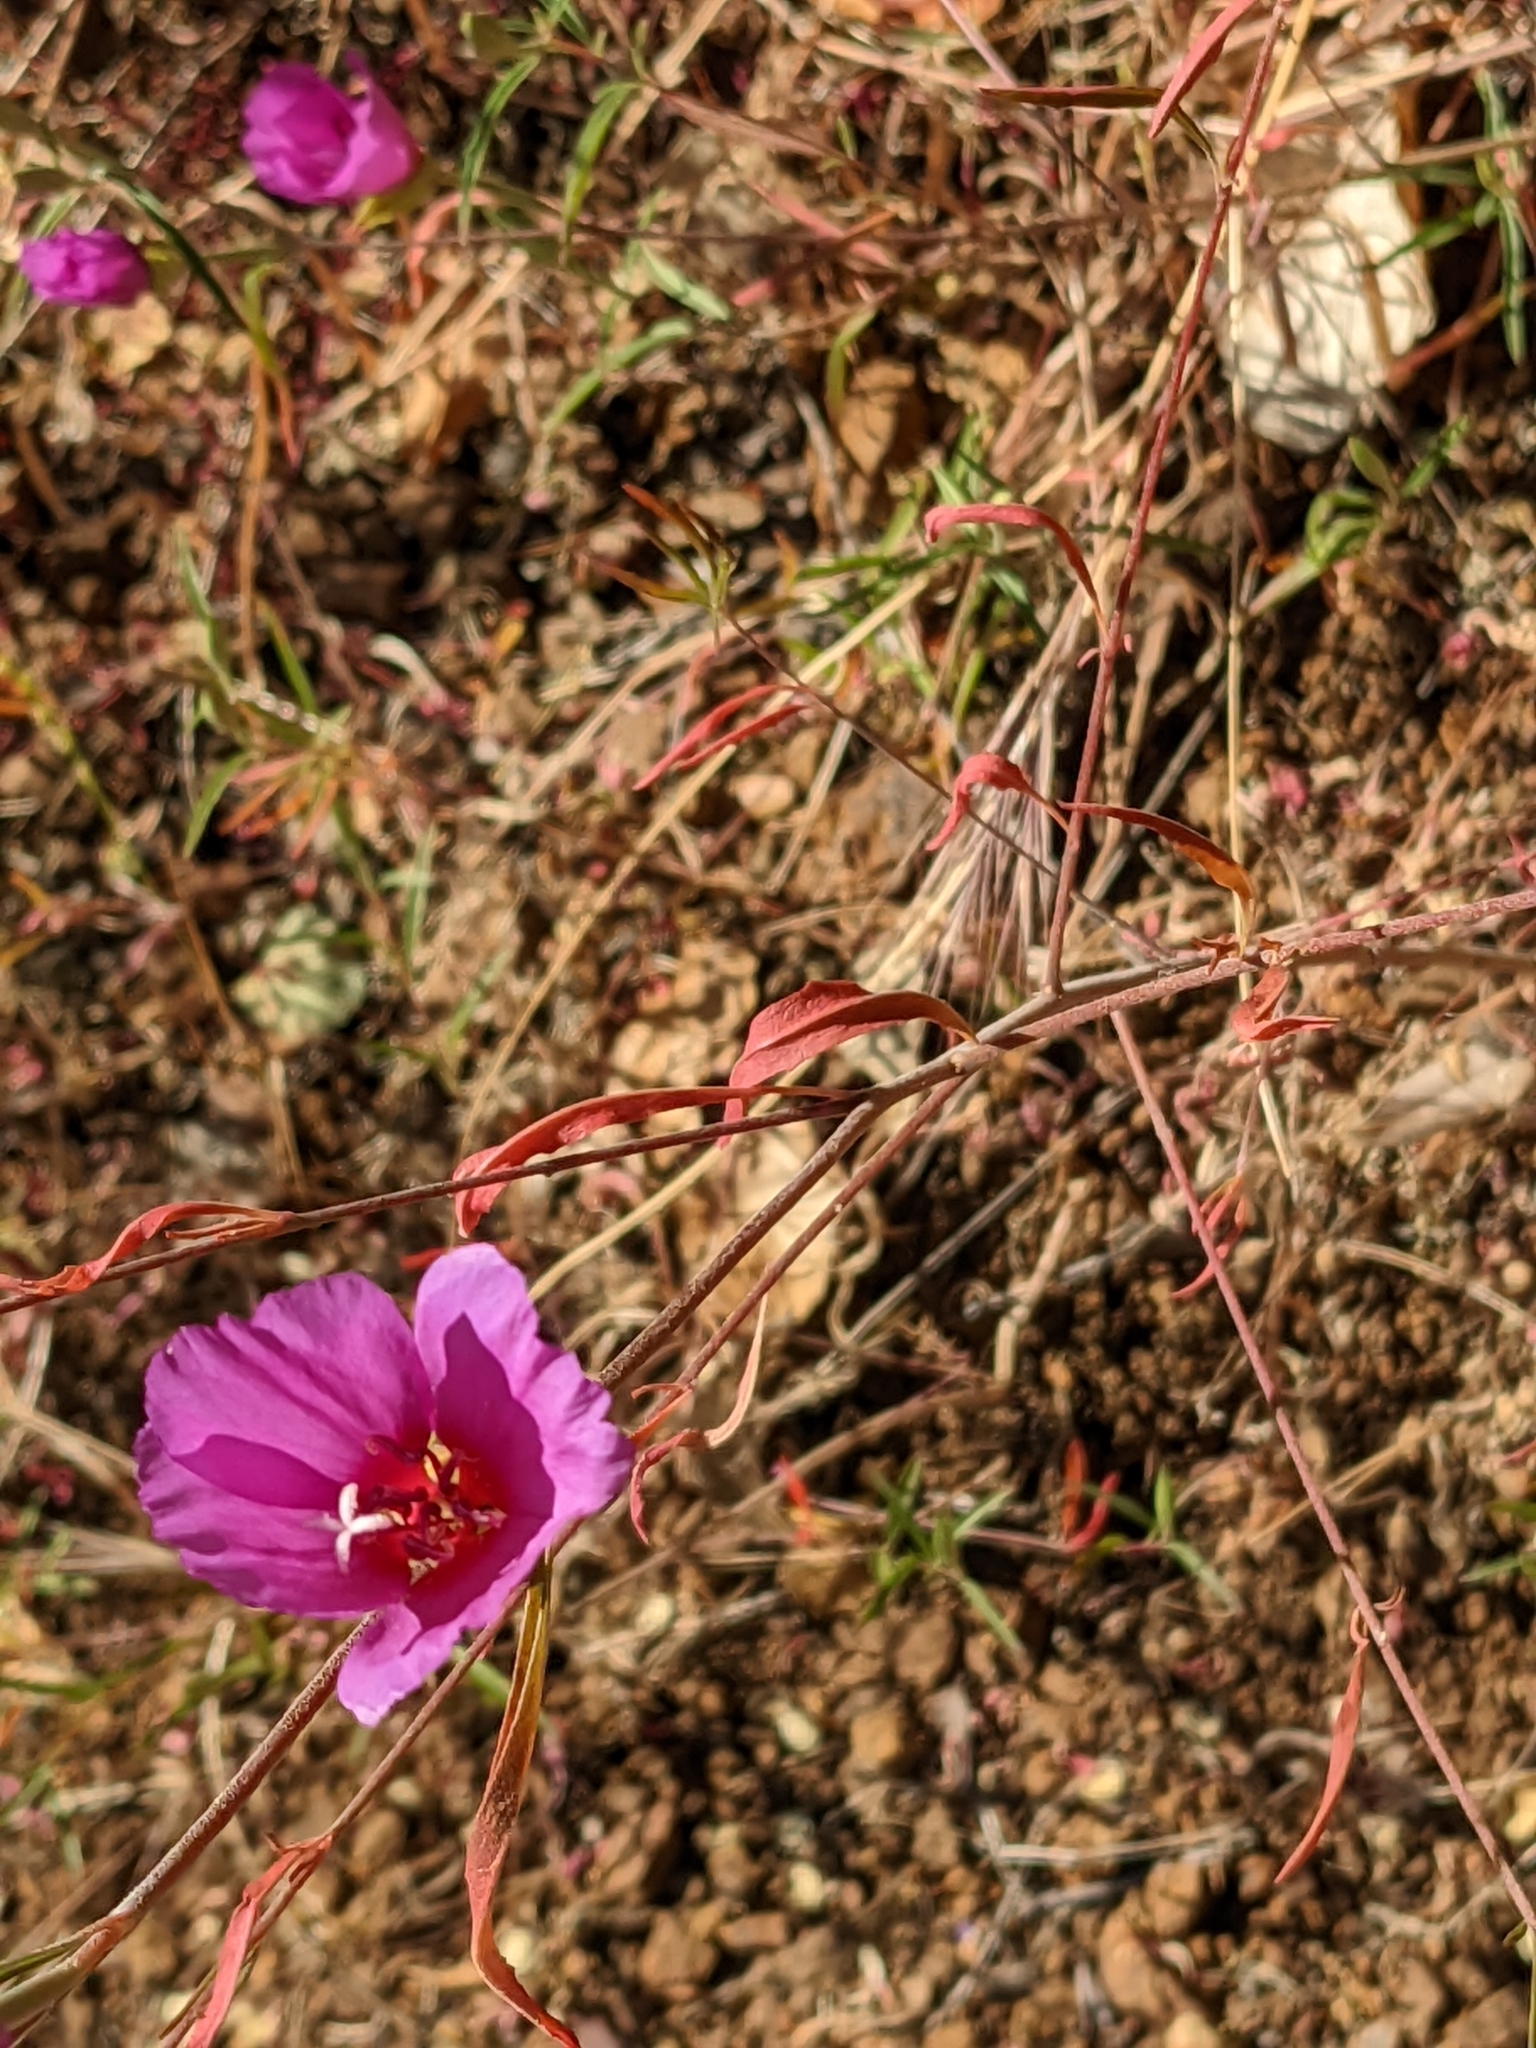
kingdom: Plantae
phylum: Tracheophyta
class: Magnoliopsida
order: Myrtales
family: Onagraceae
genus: Clarkia
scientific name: Clarkia rubicunda
